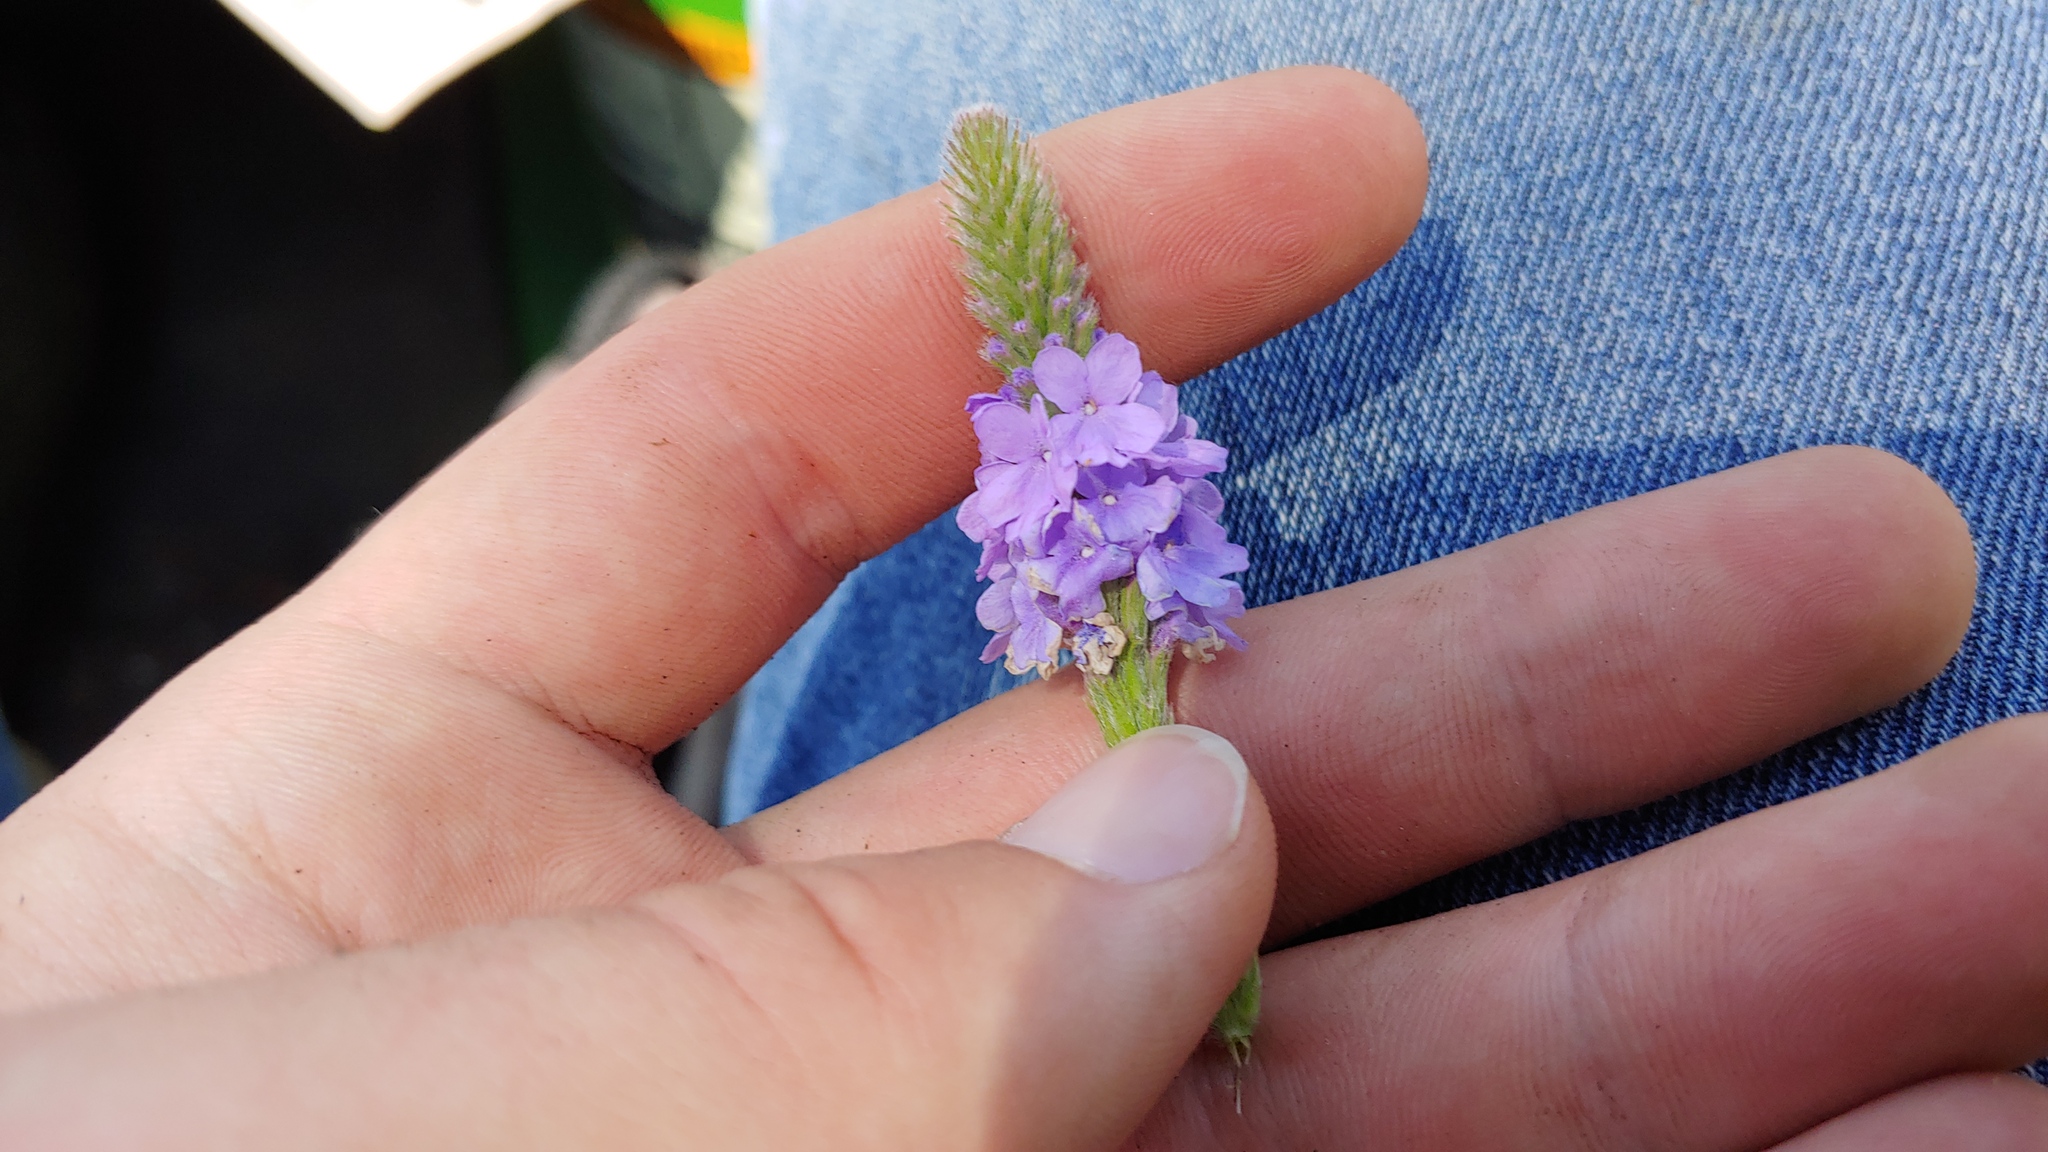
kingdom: Plantae
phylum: Tracheophyta
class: Magnoliopsida
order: Lamiales
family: Verbenaceae
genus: Verbena
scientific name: Verbena stricta
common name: Hoary vervain
